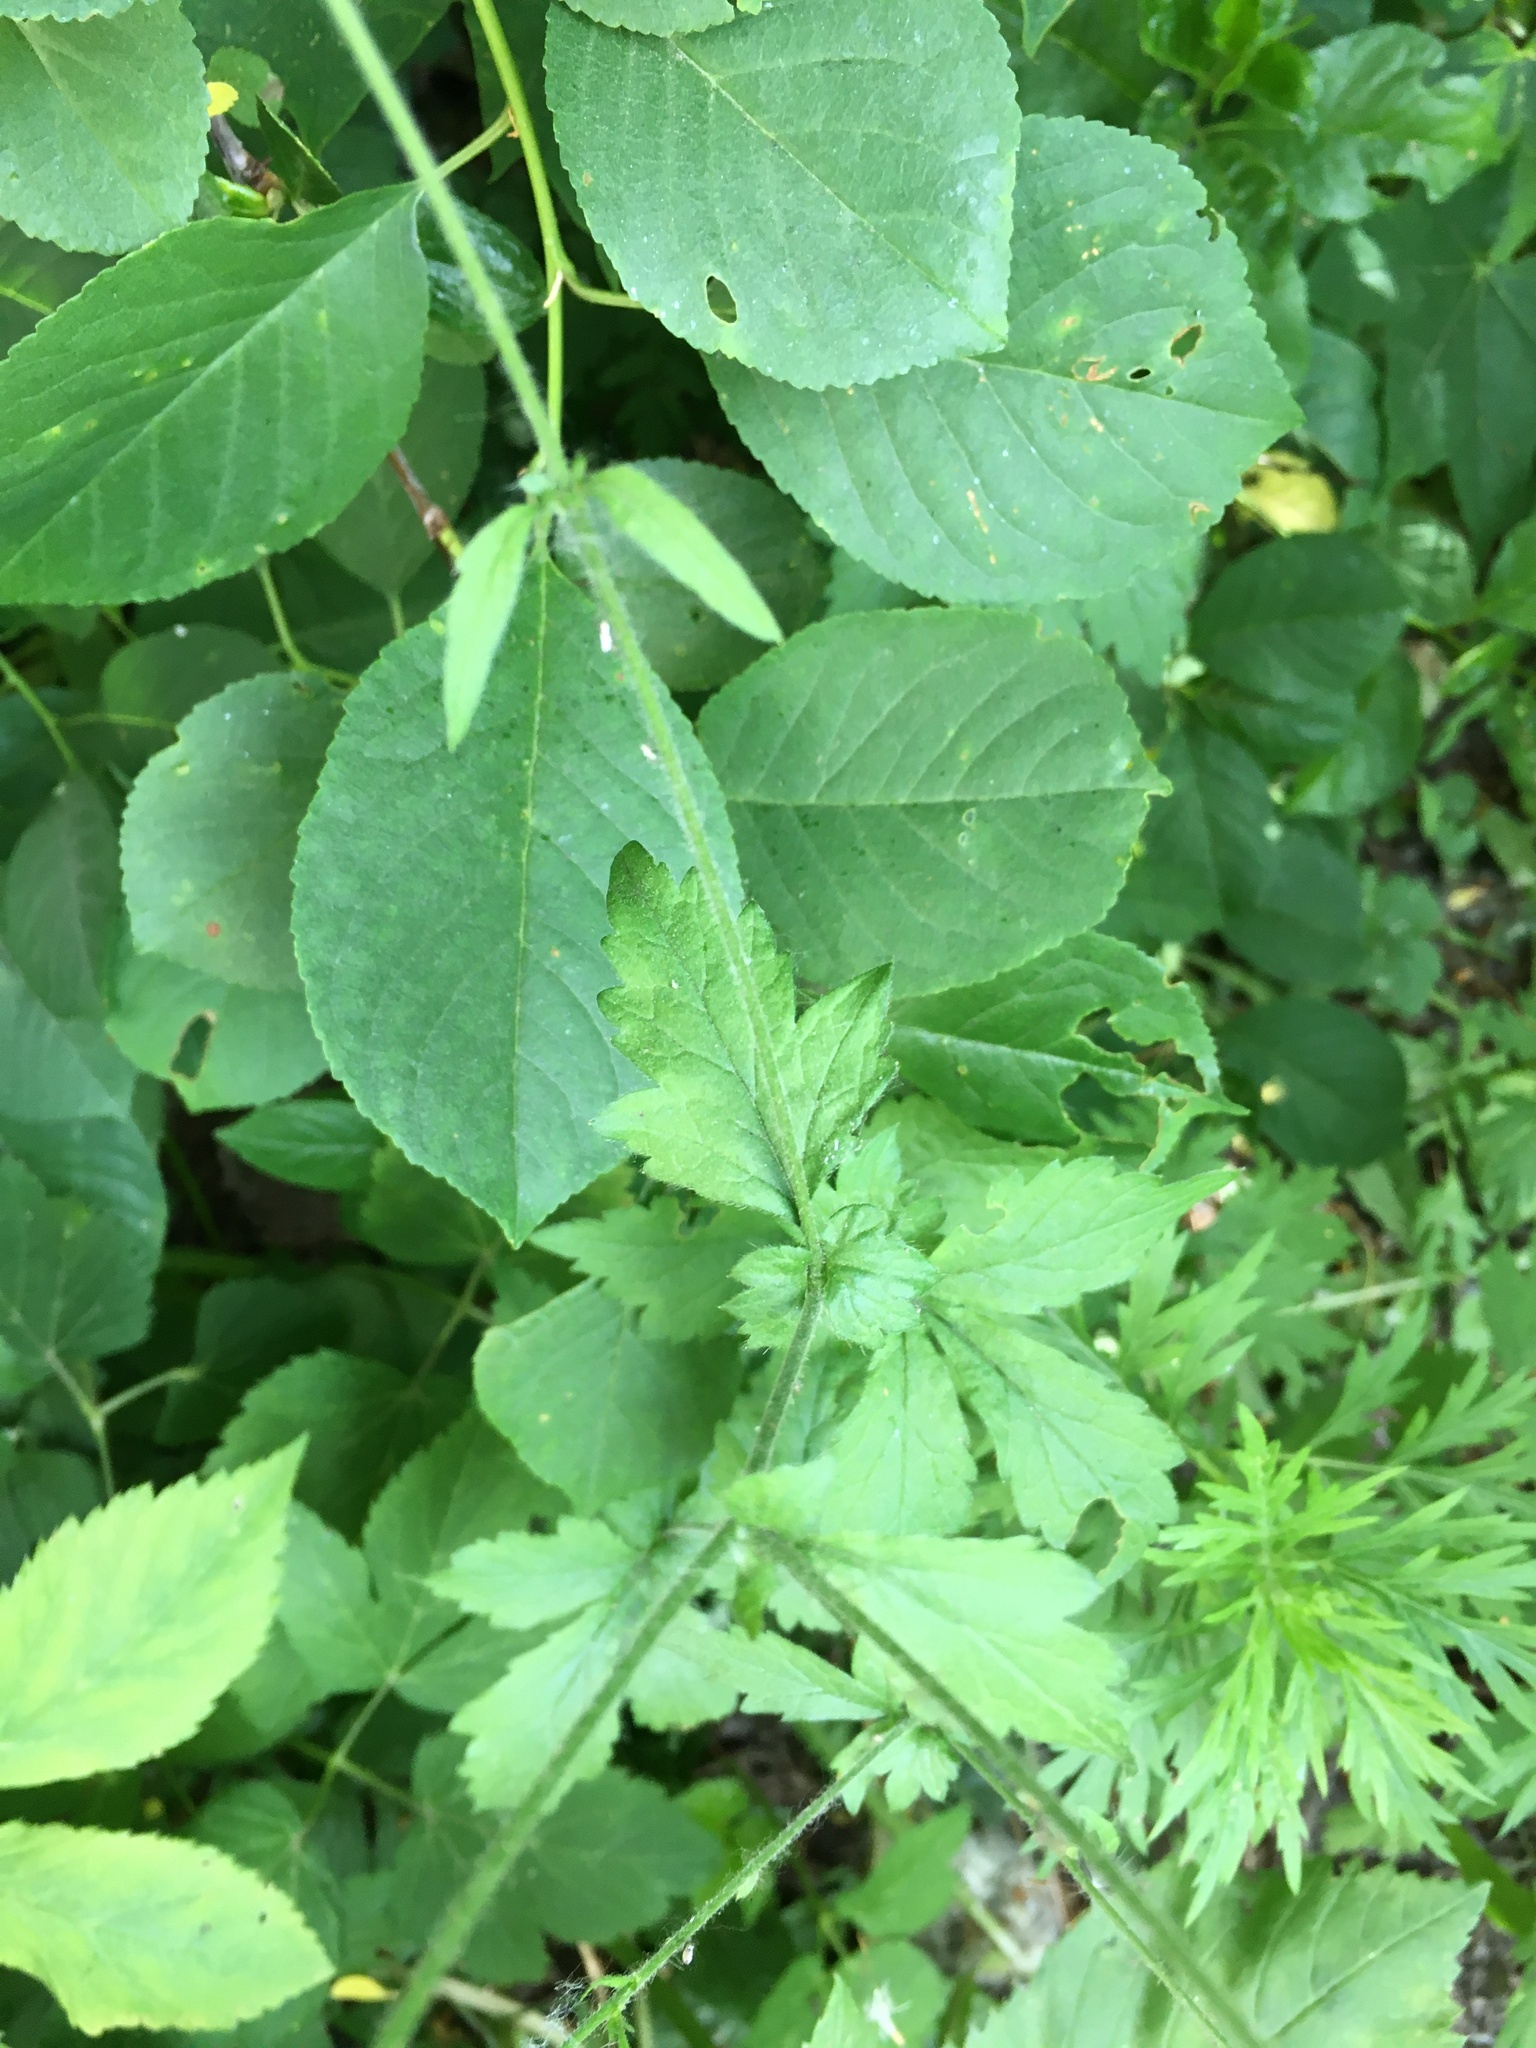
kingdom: Plantae
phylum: Tracheophyta
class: Magnoliopsida
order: Rosales
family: Rosaceae
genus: Geum
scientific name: Geum urbanum
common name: Wood avens
